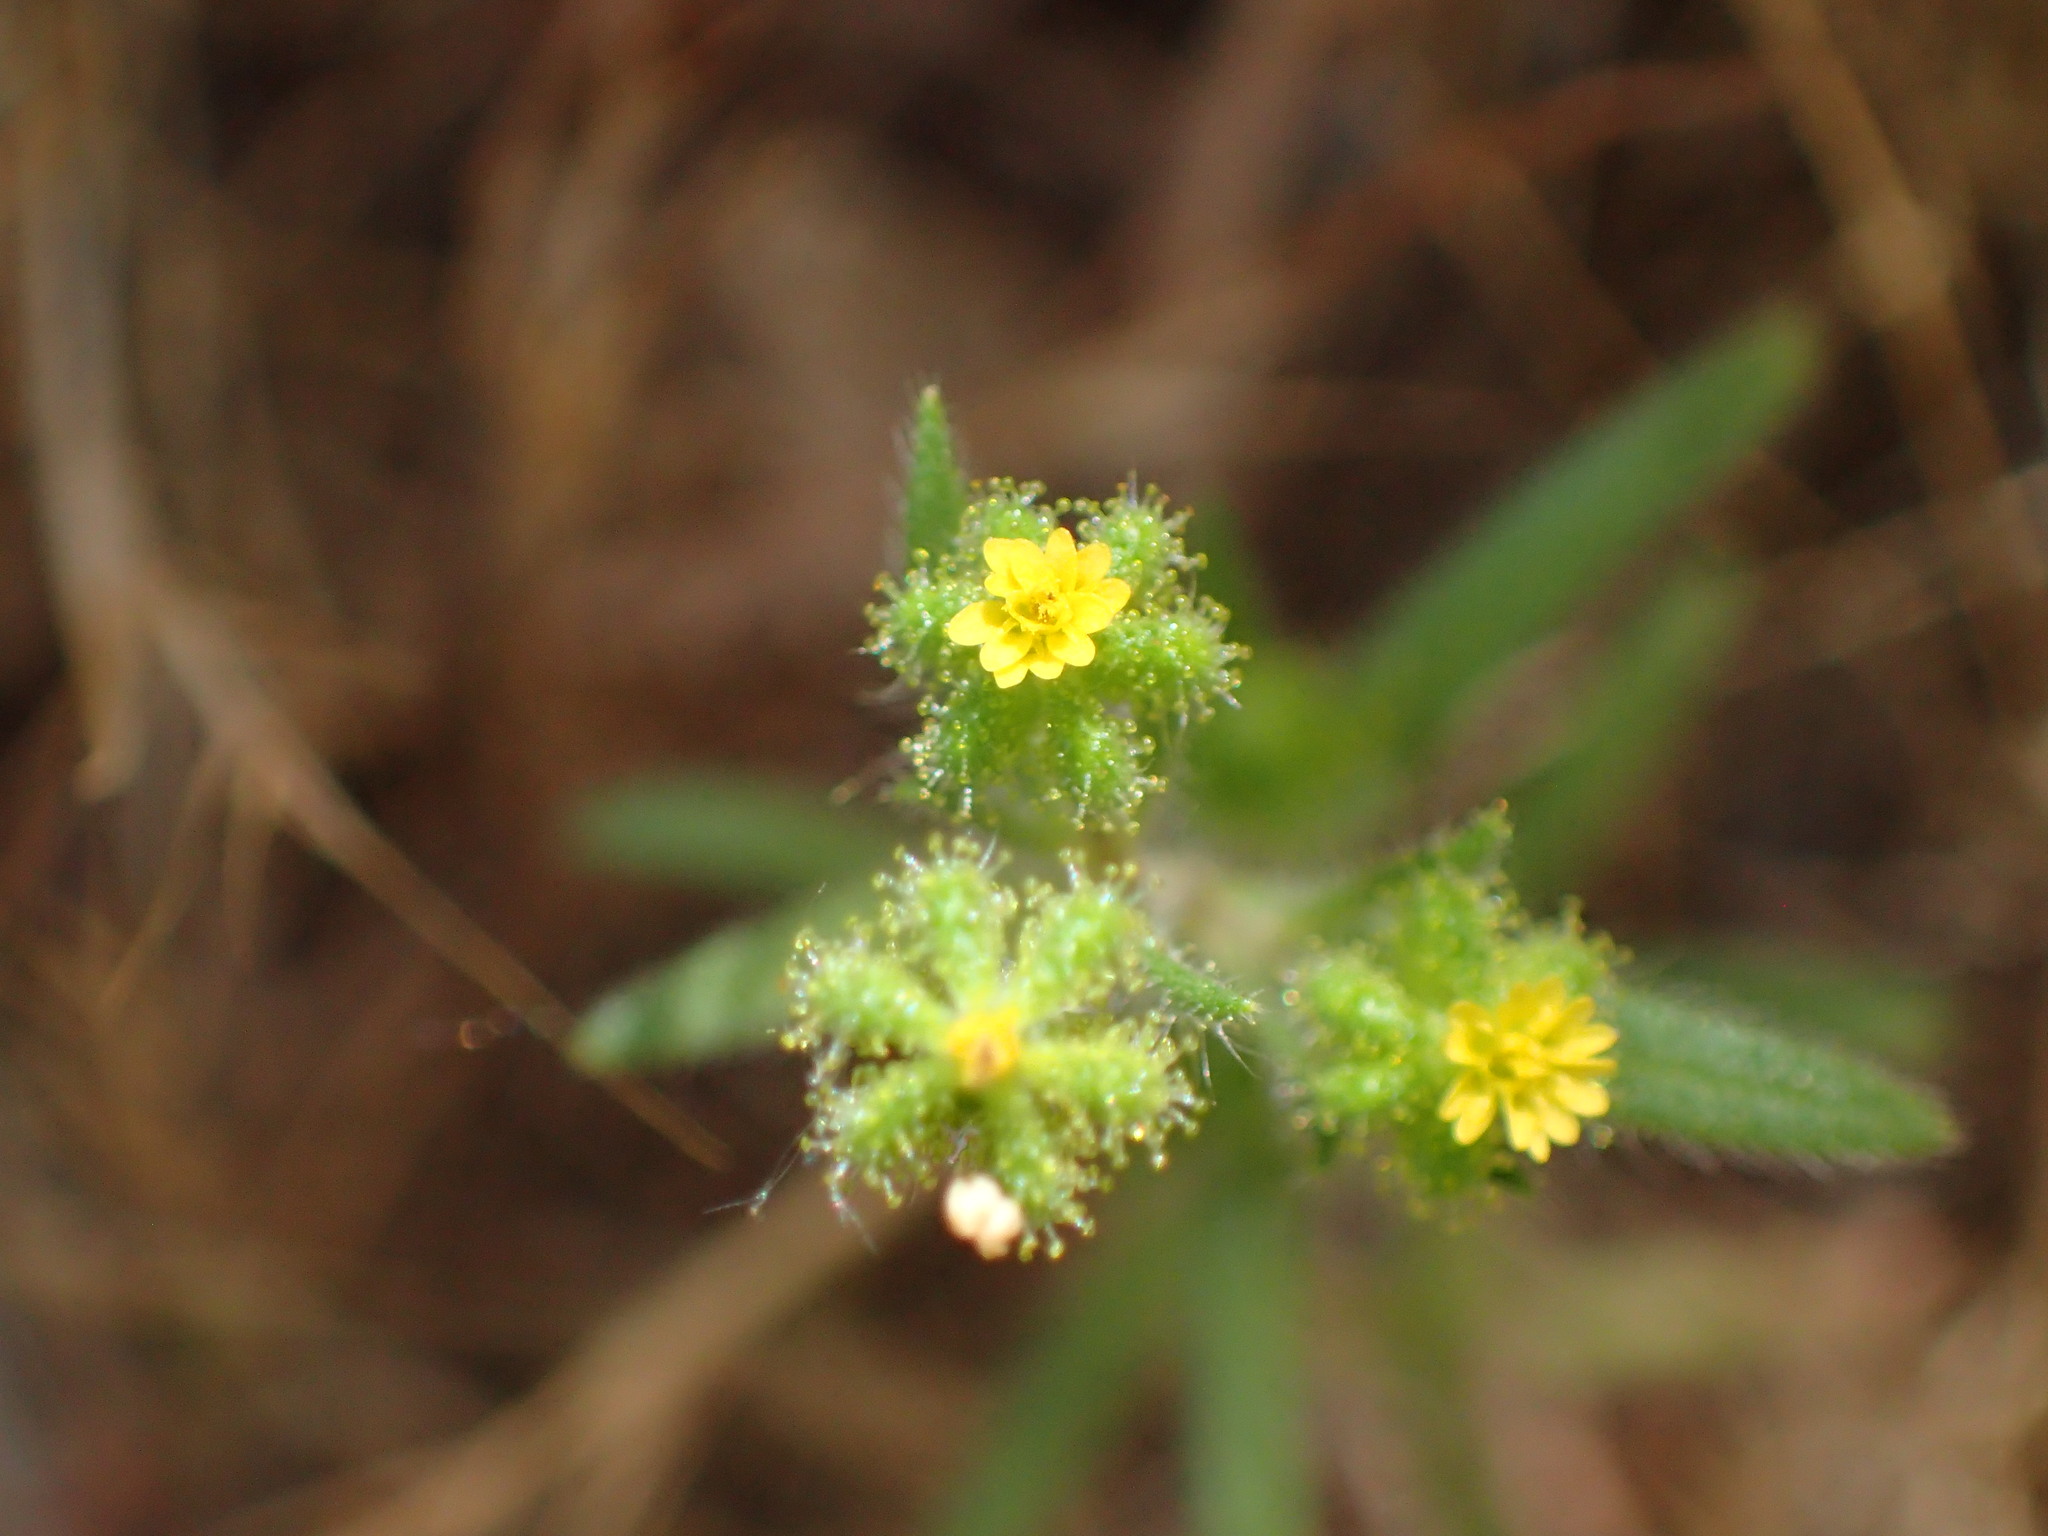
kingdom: Plantae
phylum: Tracheophyta
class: Magnoliopsida
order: Asterales
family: Asteraceae
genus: Madia
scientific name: Madia exigua
